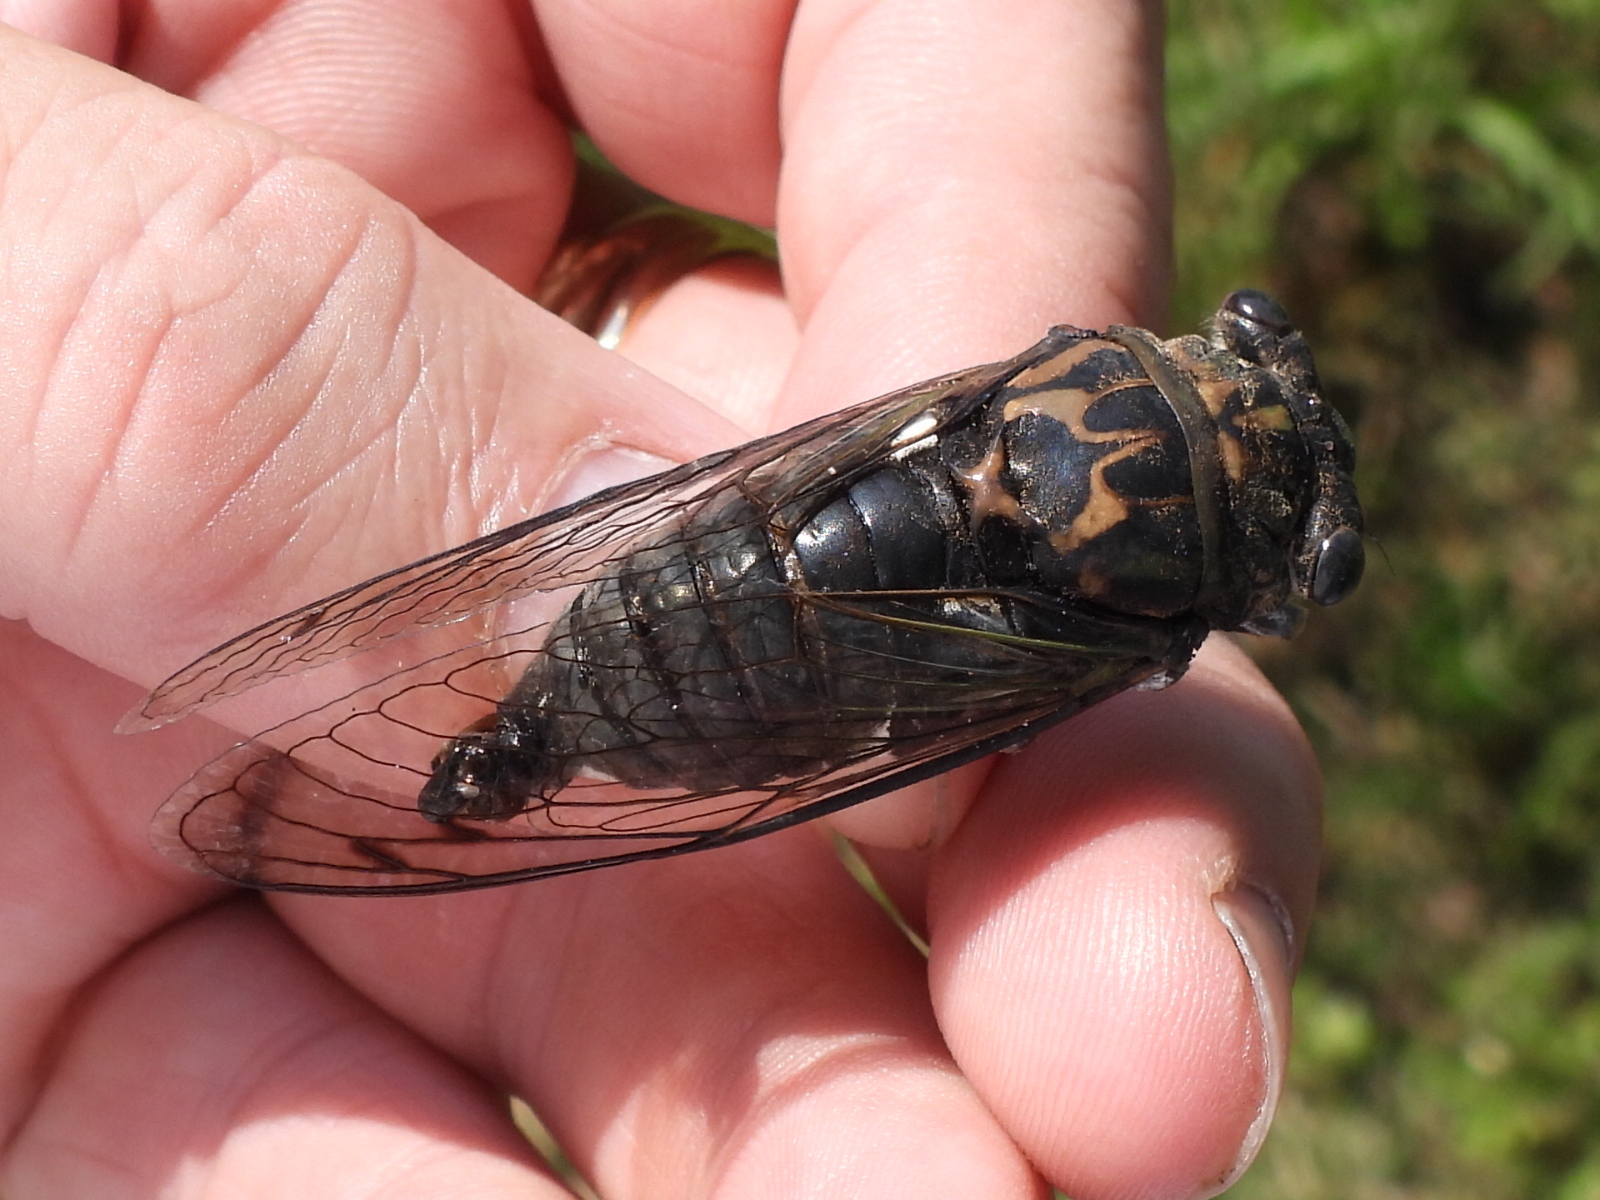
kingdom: Animalia
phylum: Arthropoda
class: Insecta
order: Hemiptera
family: Cicadidae
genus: Neotibicen
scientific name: Neotibicen pruinosus
